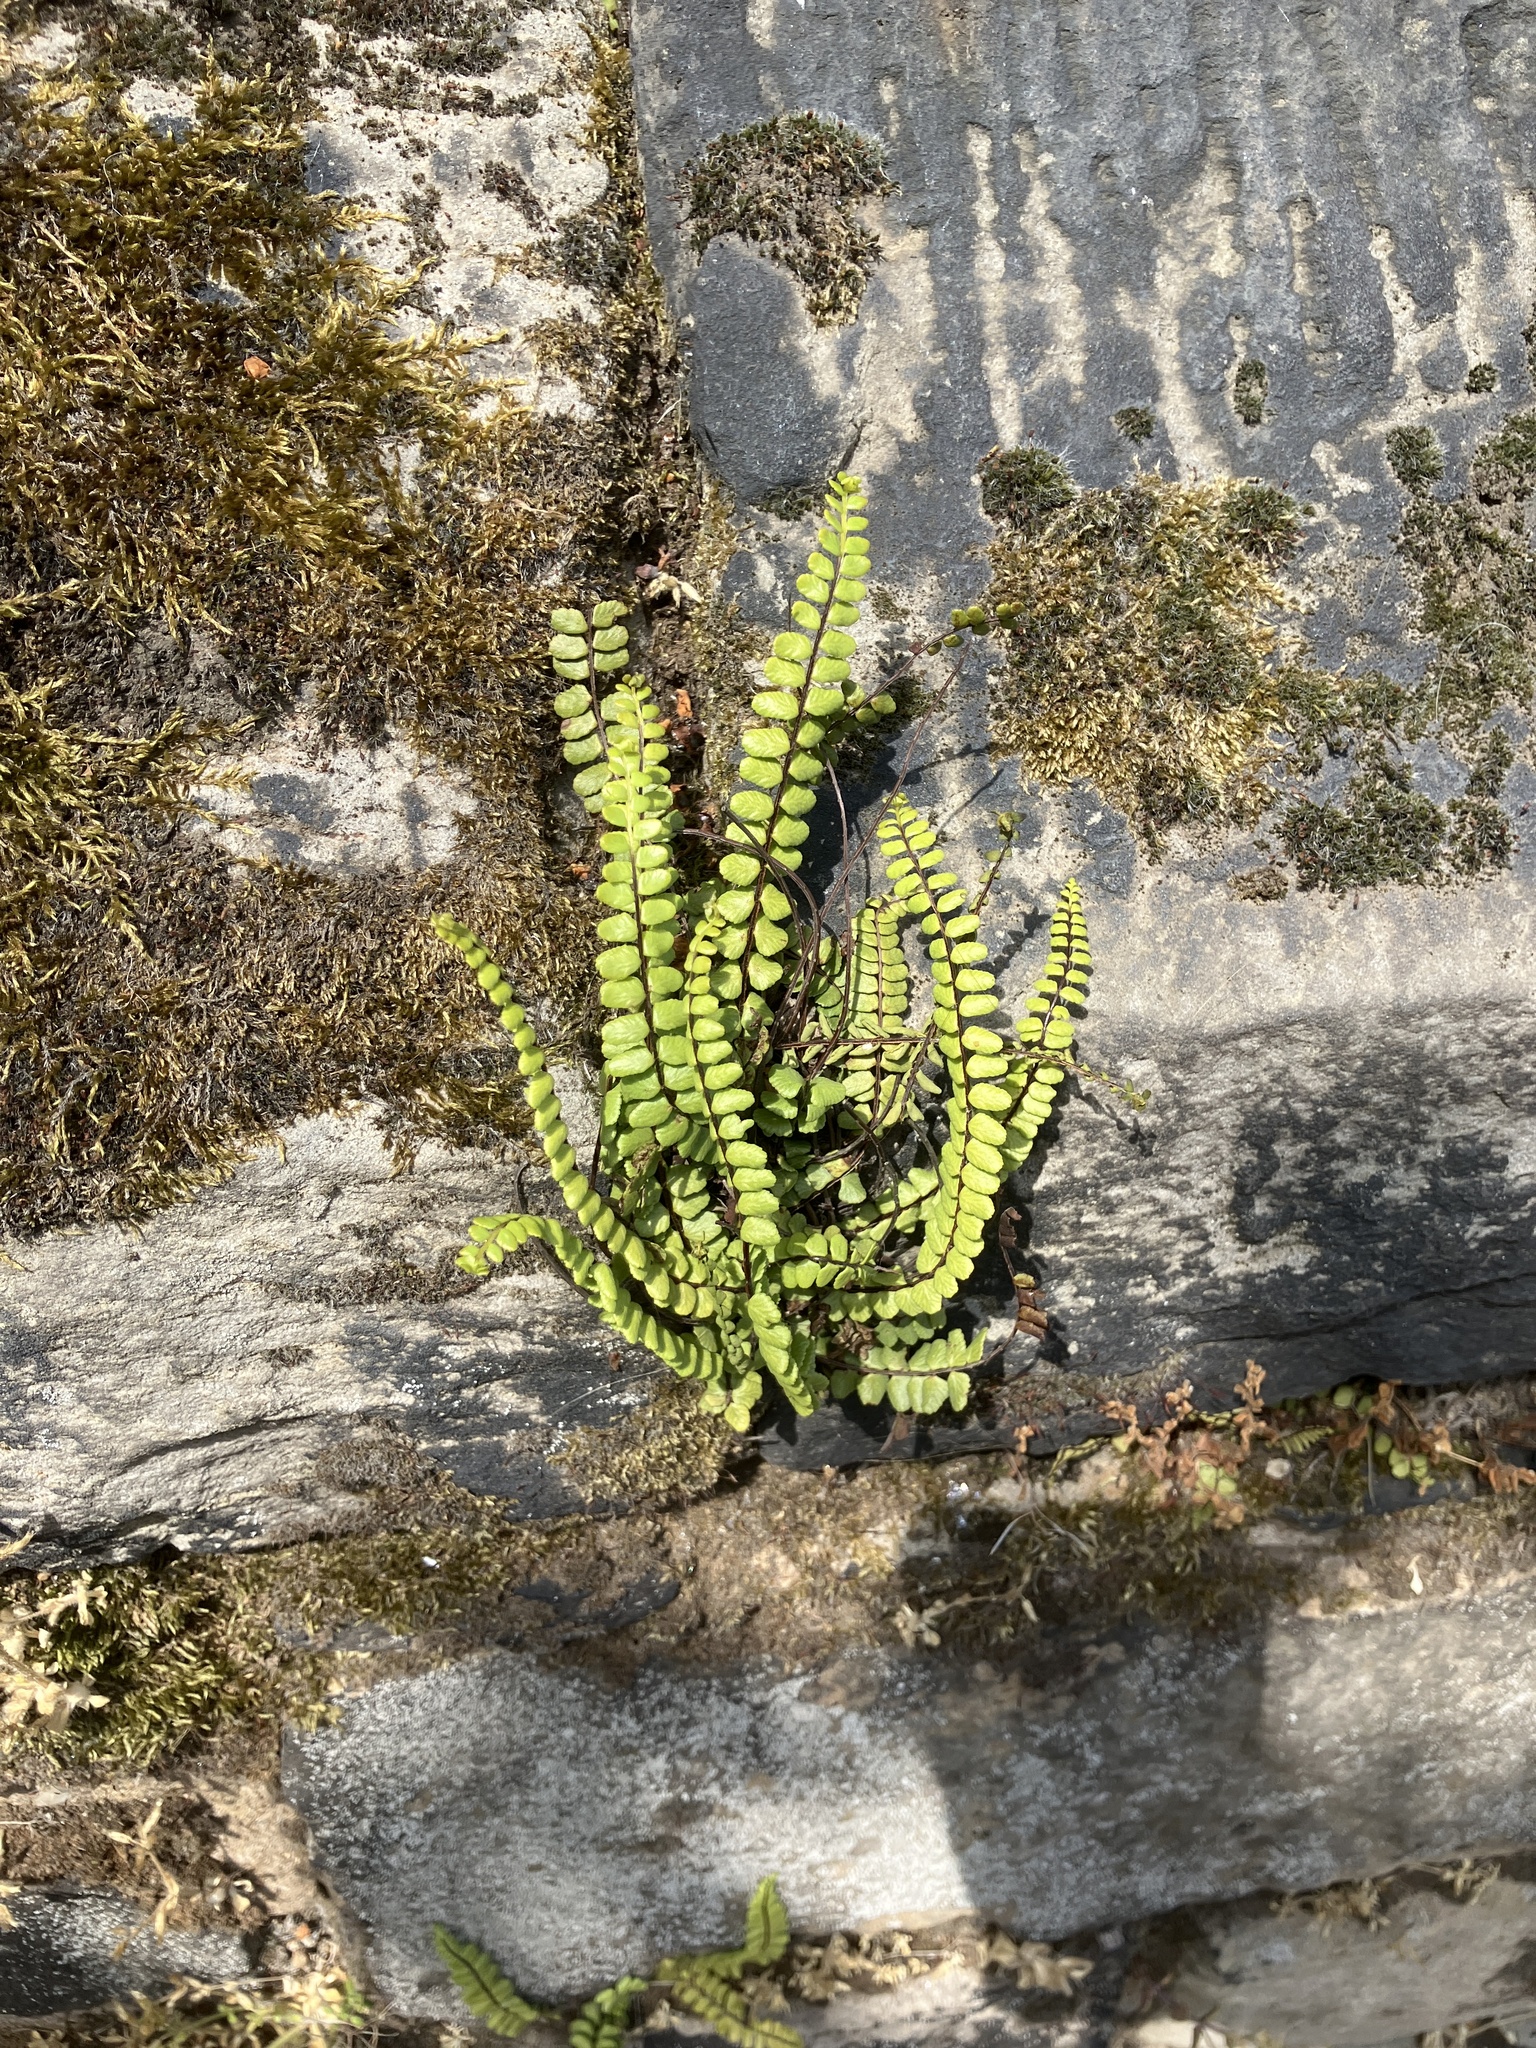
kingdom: Plantae
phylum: Tracheophyta
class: Polypodiopsida
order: Polypodiales
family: Aspleniaceae
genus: Asplenium
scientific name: Asplenium trichomanes
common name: Maidenhair spleenwort
